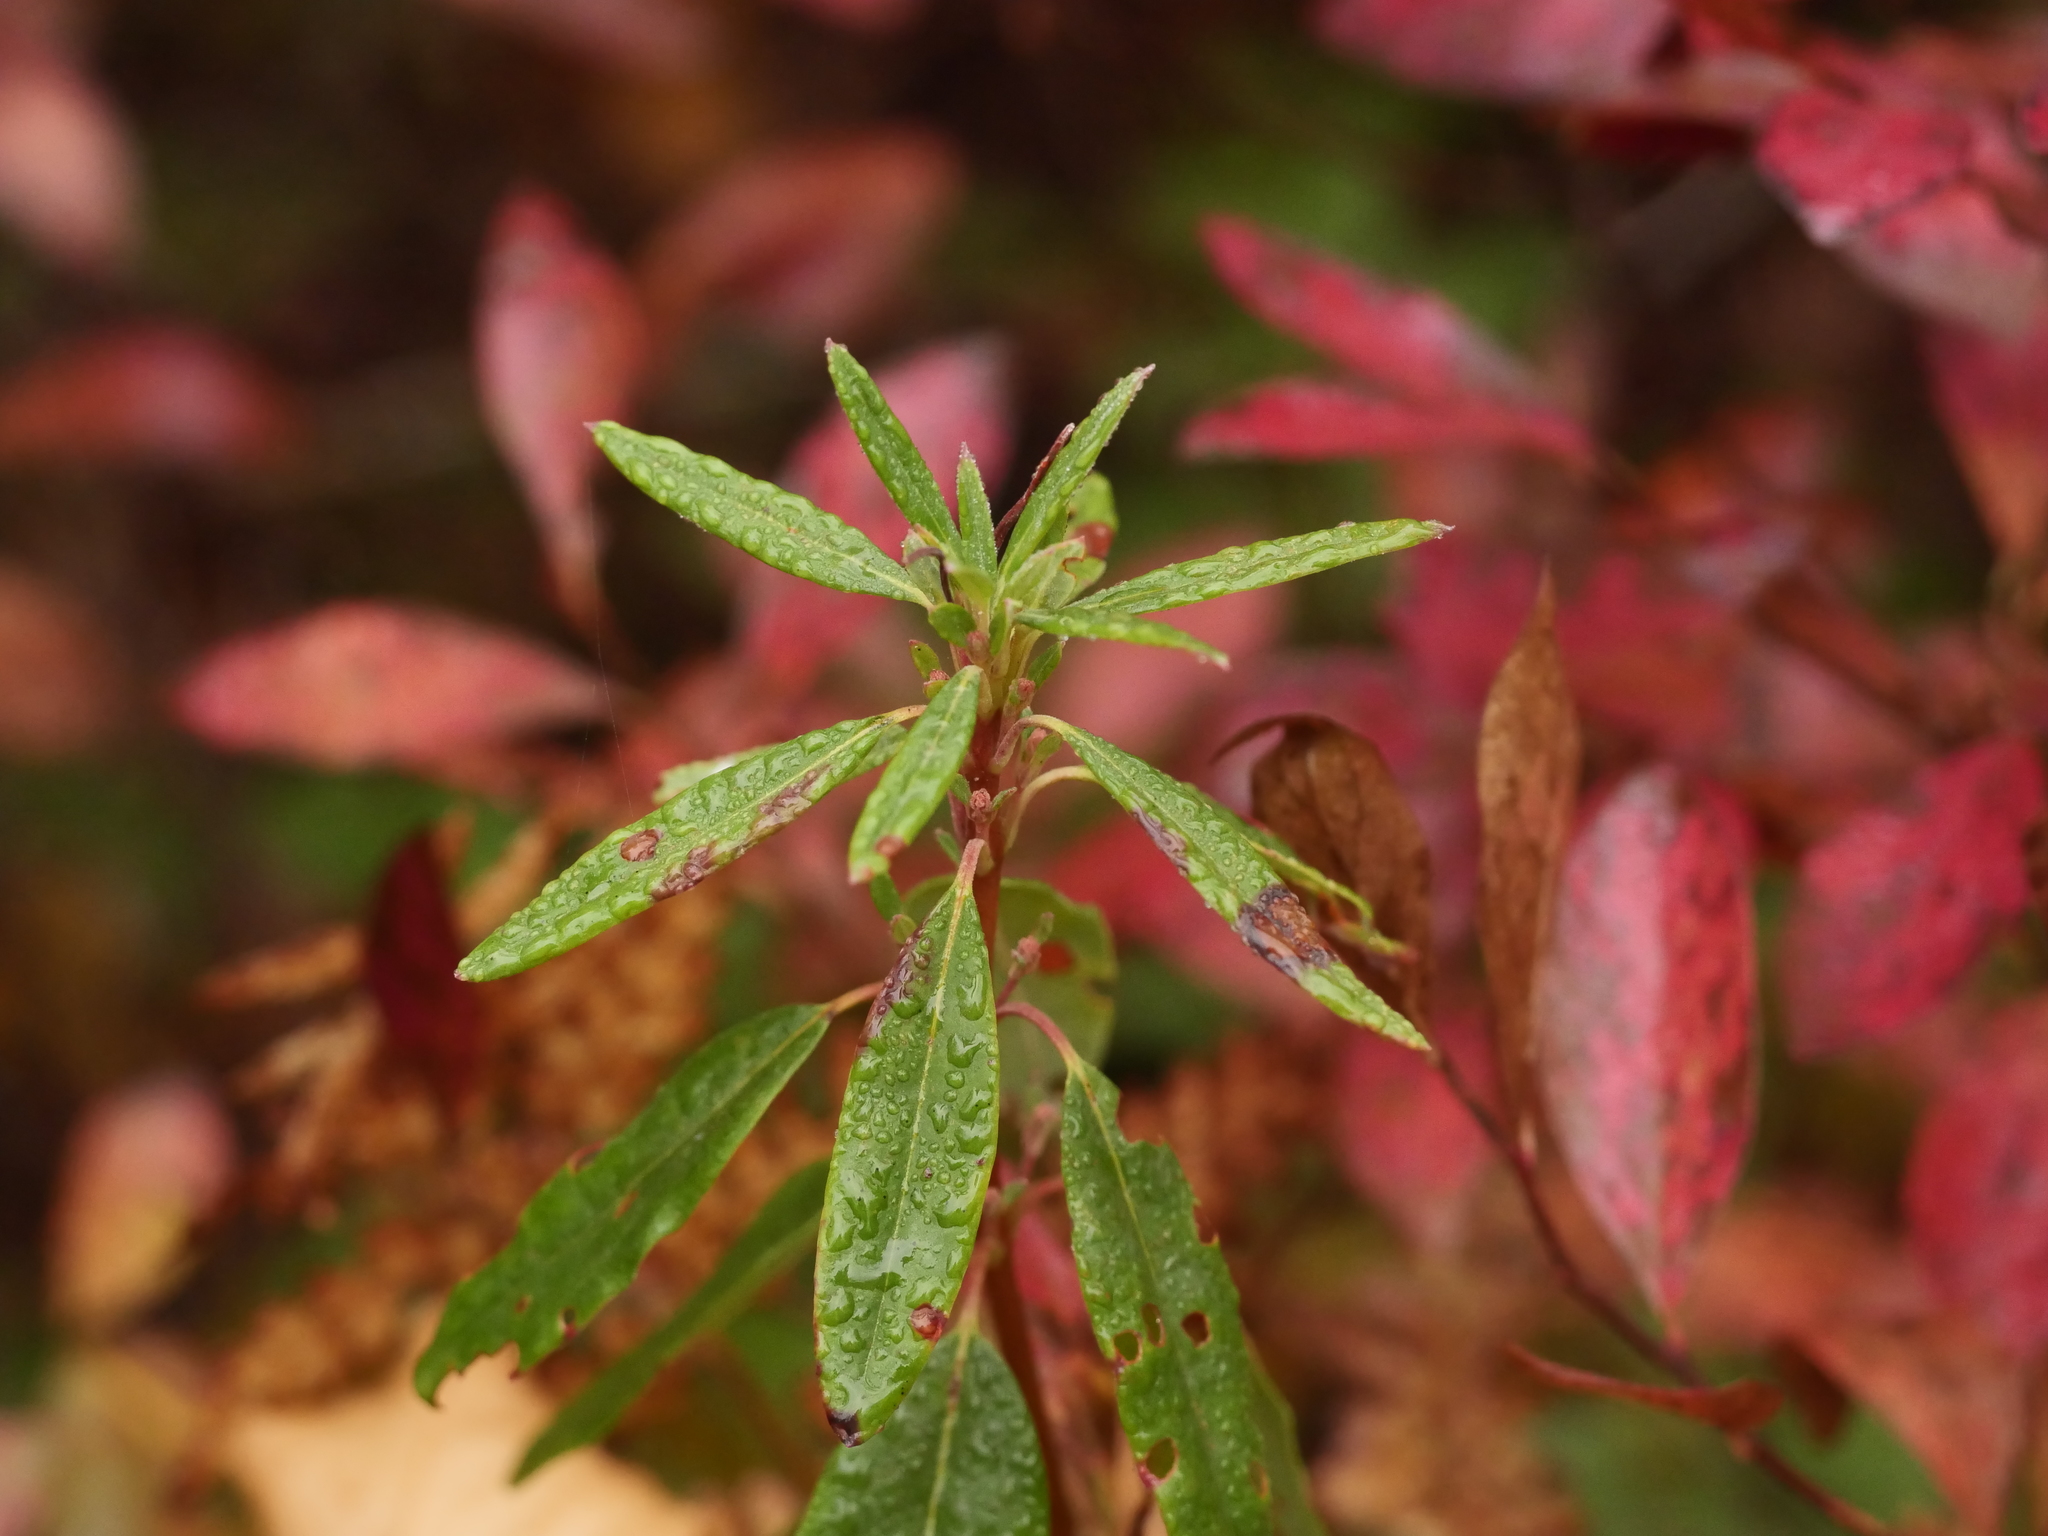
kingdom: Plantae
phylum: Tracheophyta
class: Magnoliopsida
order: Ericales
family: Ericaceae
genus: Kalmia
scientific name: Kalmia angustifolia
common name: Sheep-laurel
